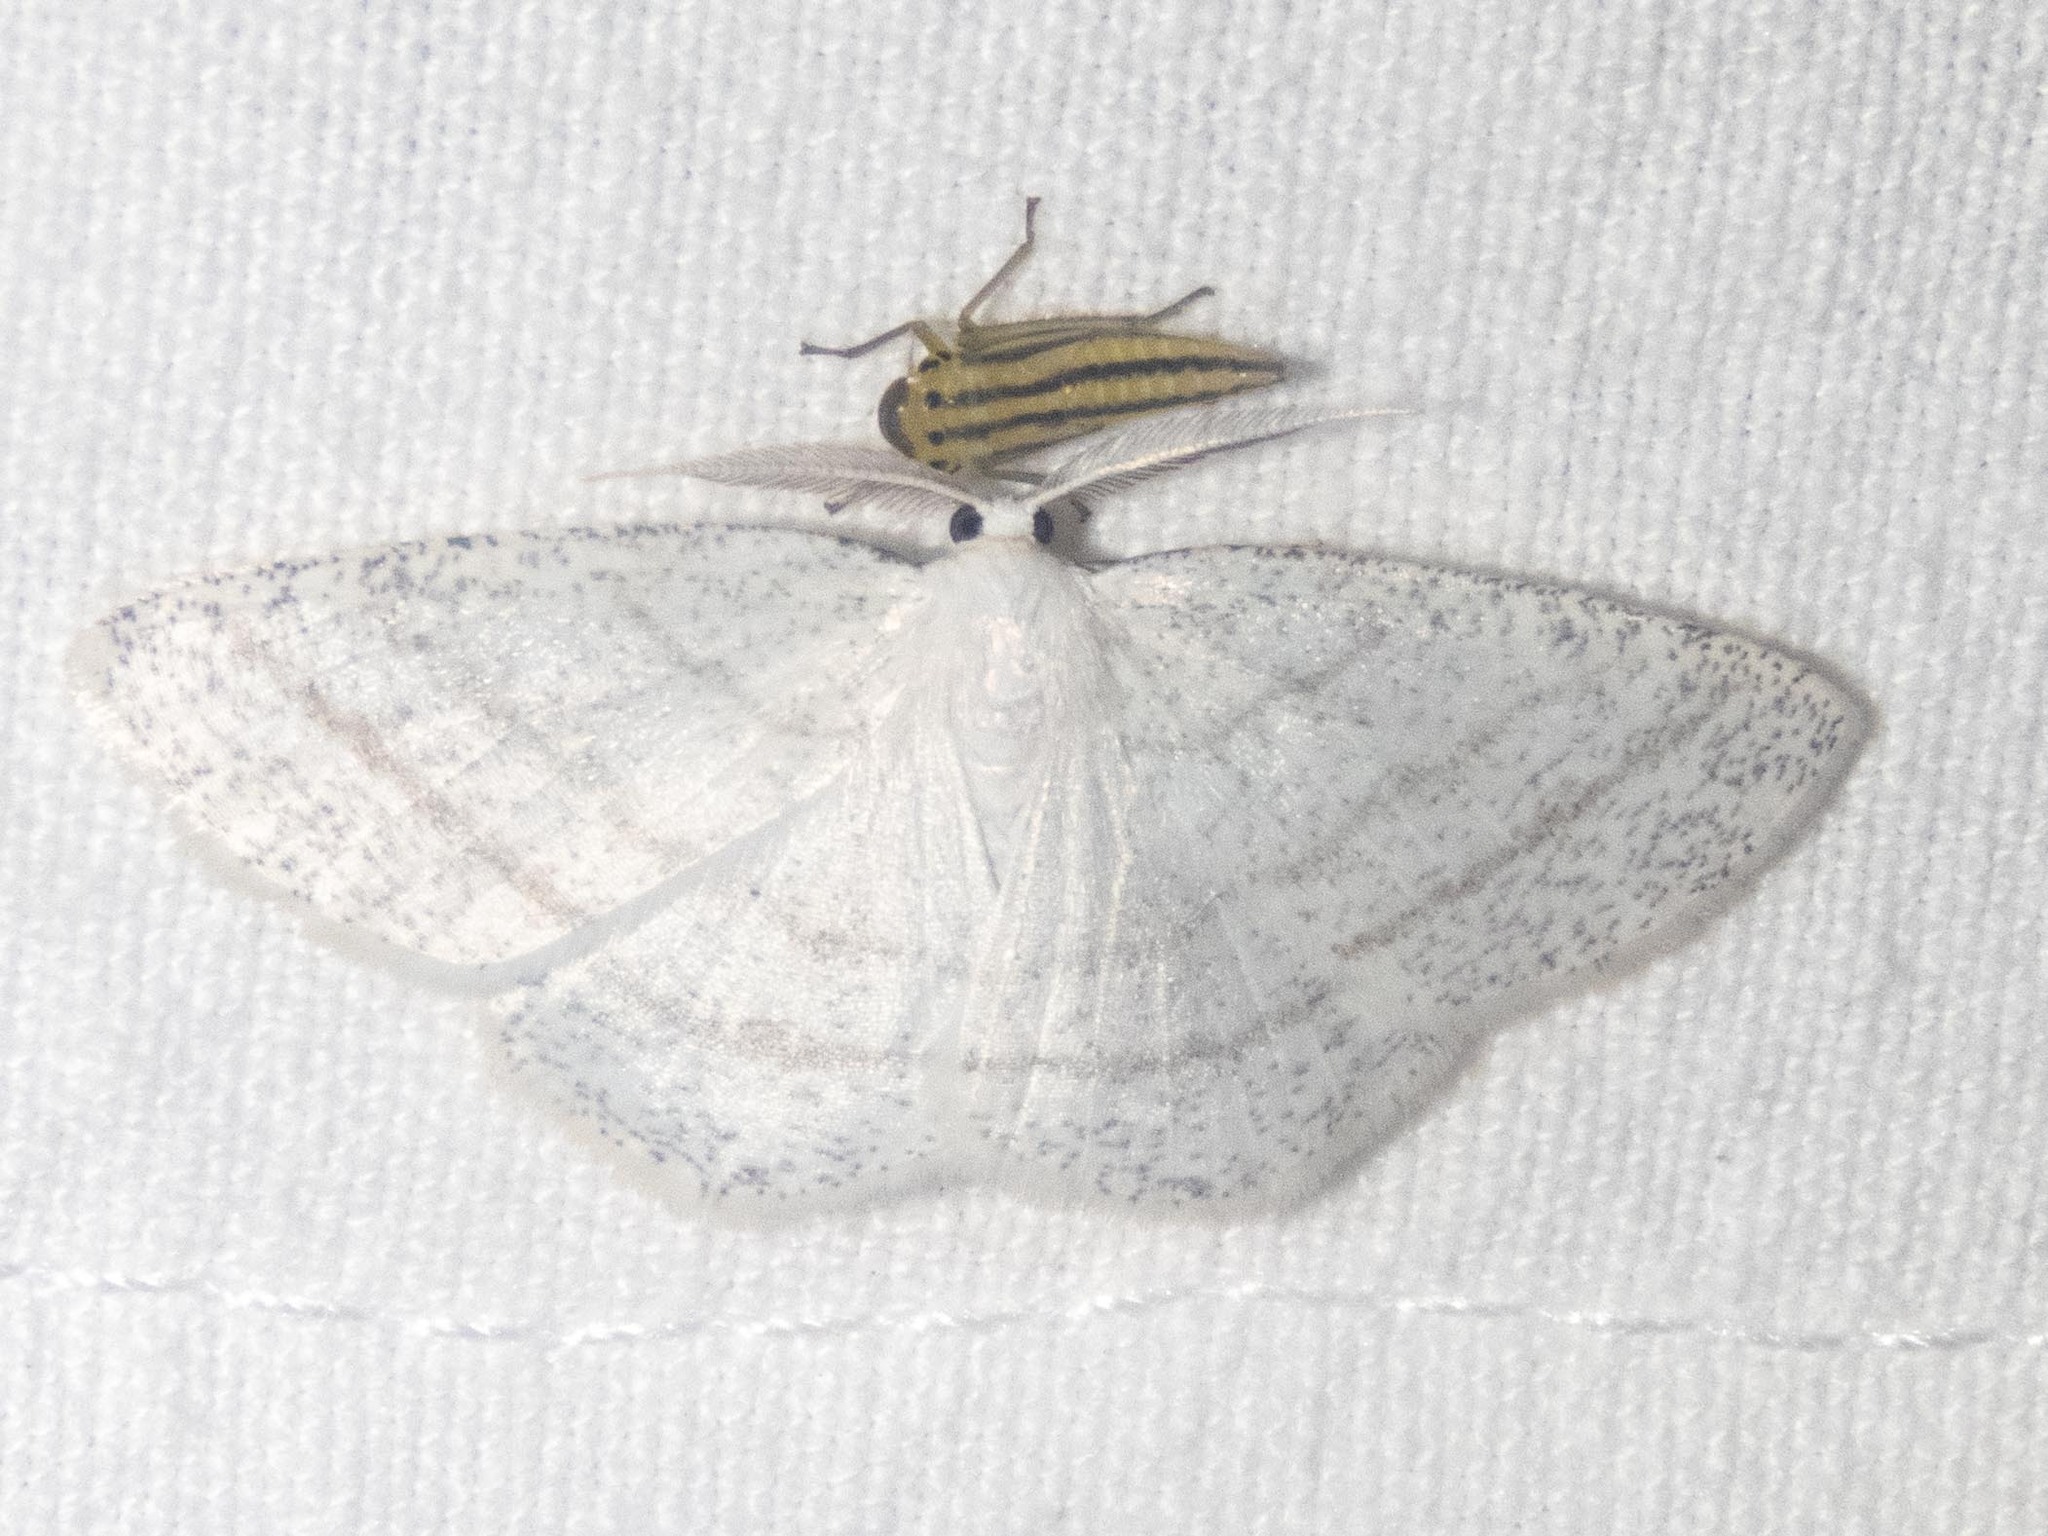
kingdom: Animalia
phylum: Arthropoda
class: Insecta
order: Lepidoptera
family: Geometridae
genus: Cabera
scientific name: Cabera pusaria
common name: Common white wave
